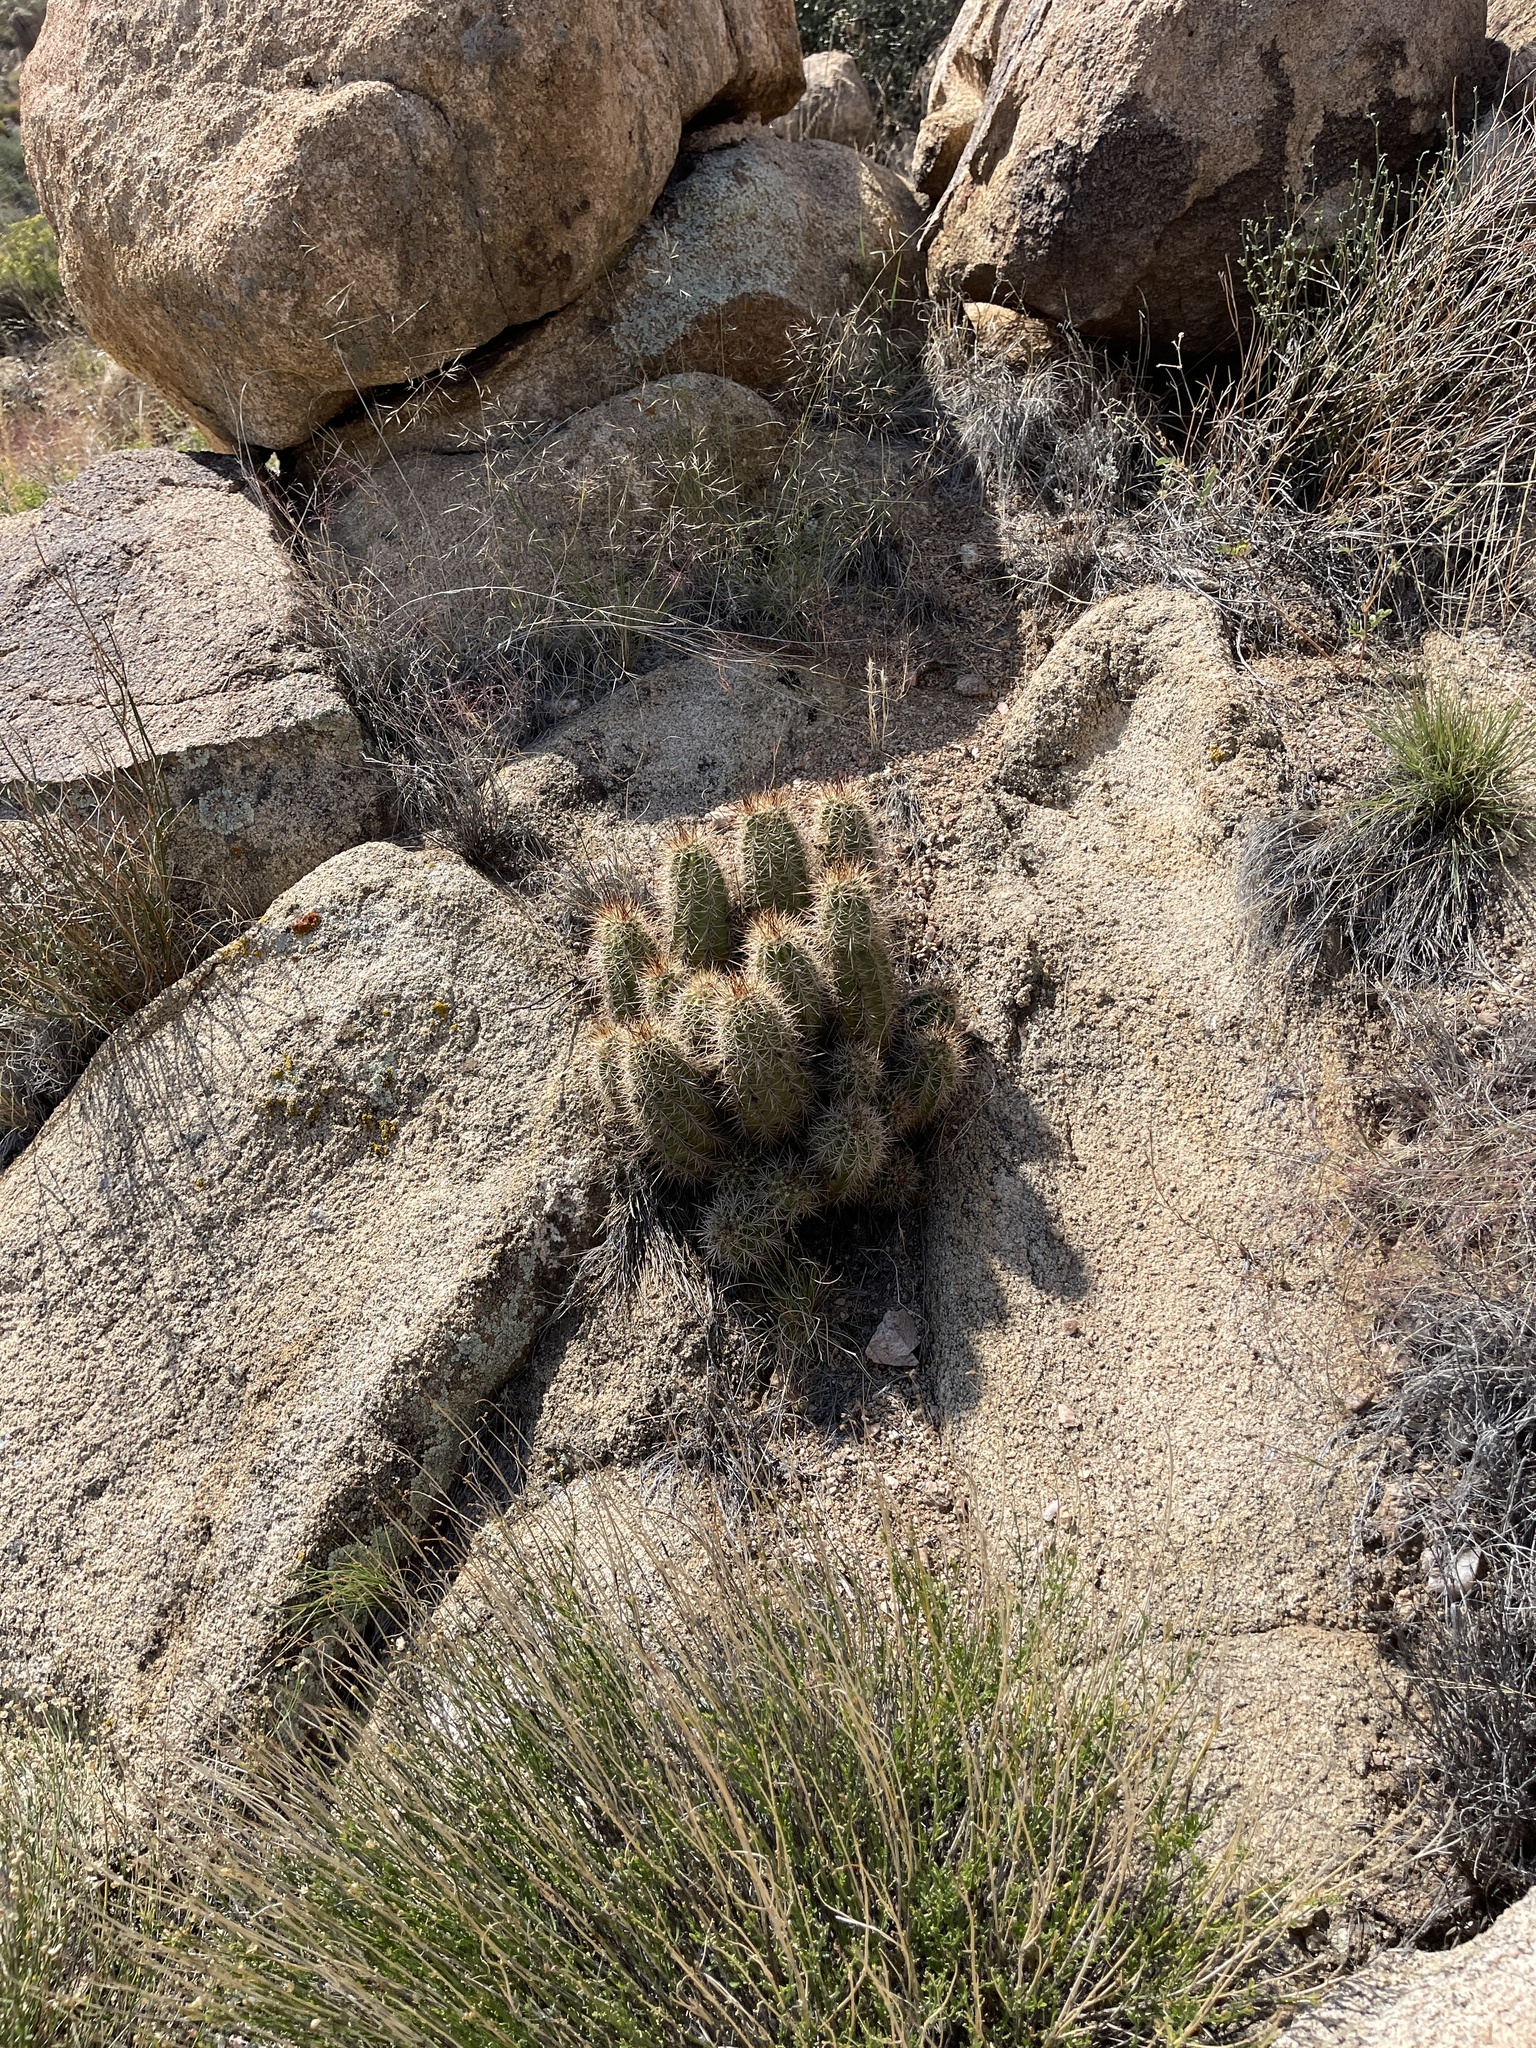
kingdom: Plantae
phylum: Tracheophyta
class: Magnoliopsida
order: Caryophyllales
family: Cactaceae
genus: Echinocereus
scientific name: Echinocereus bakeri
